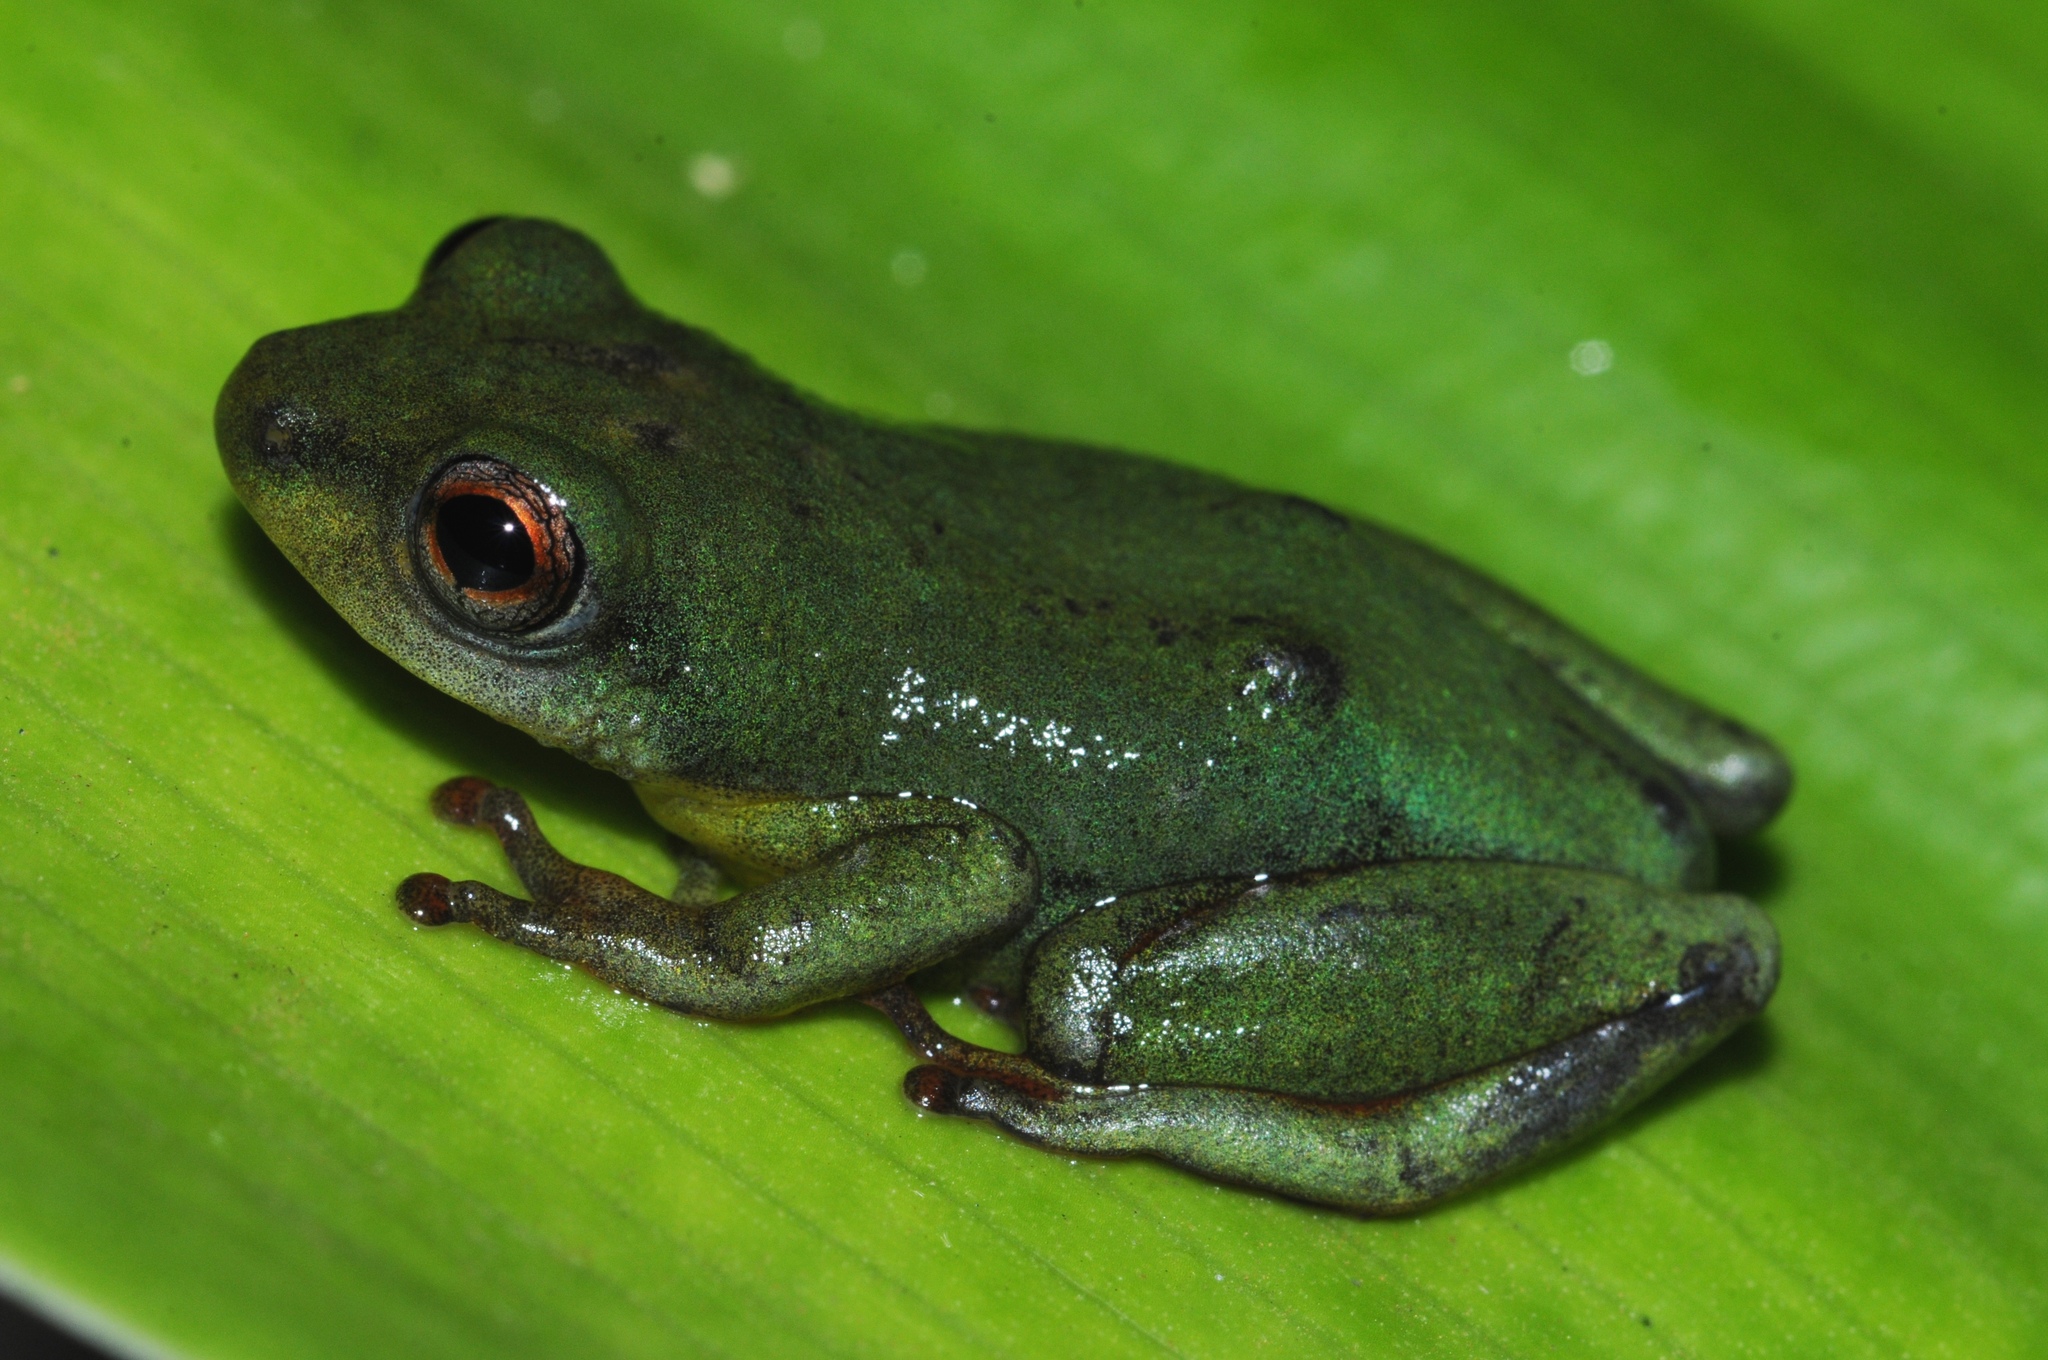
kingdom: Animalia
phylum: Chordata
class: Amphibia
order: Anura
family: Hyperoliidae
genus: Hyperolius
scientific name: Hyperolius stictus
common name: Yellow-spotted reed frog
